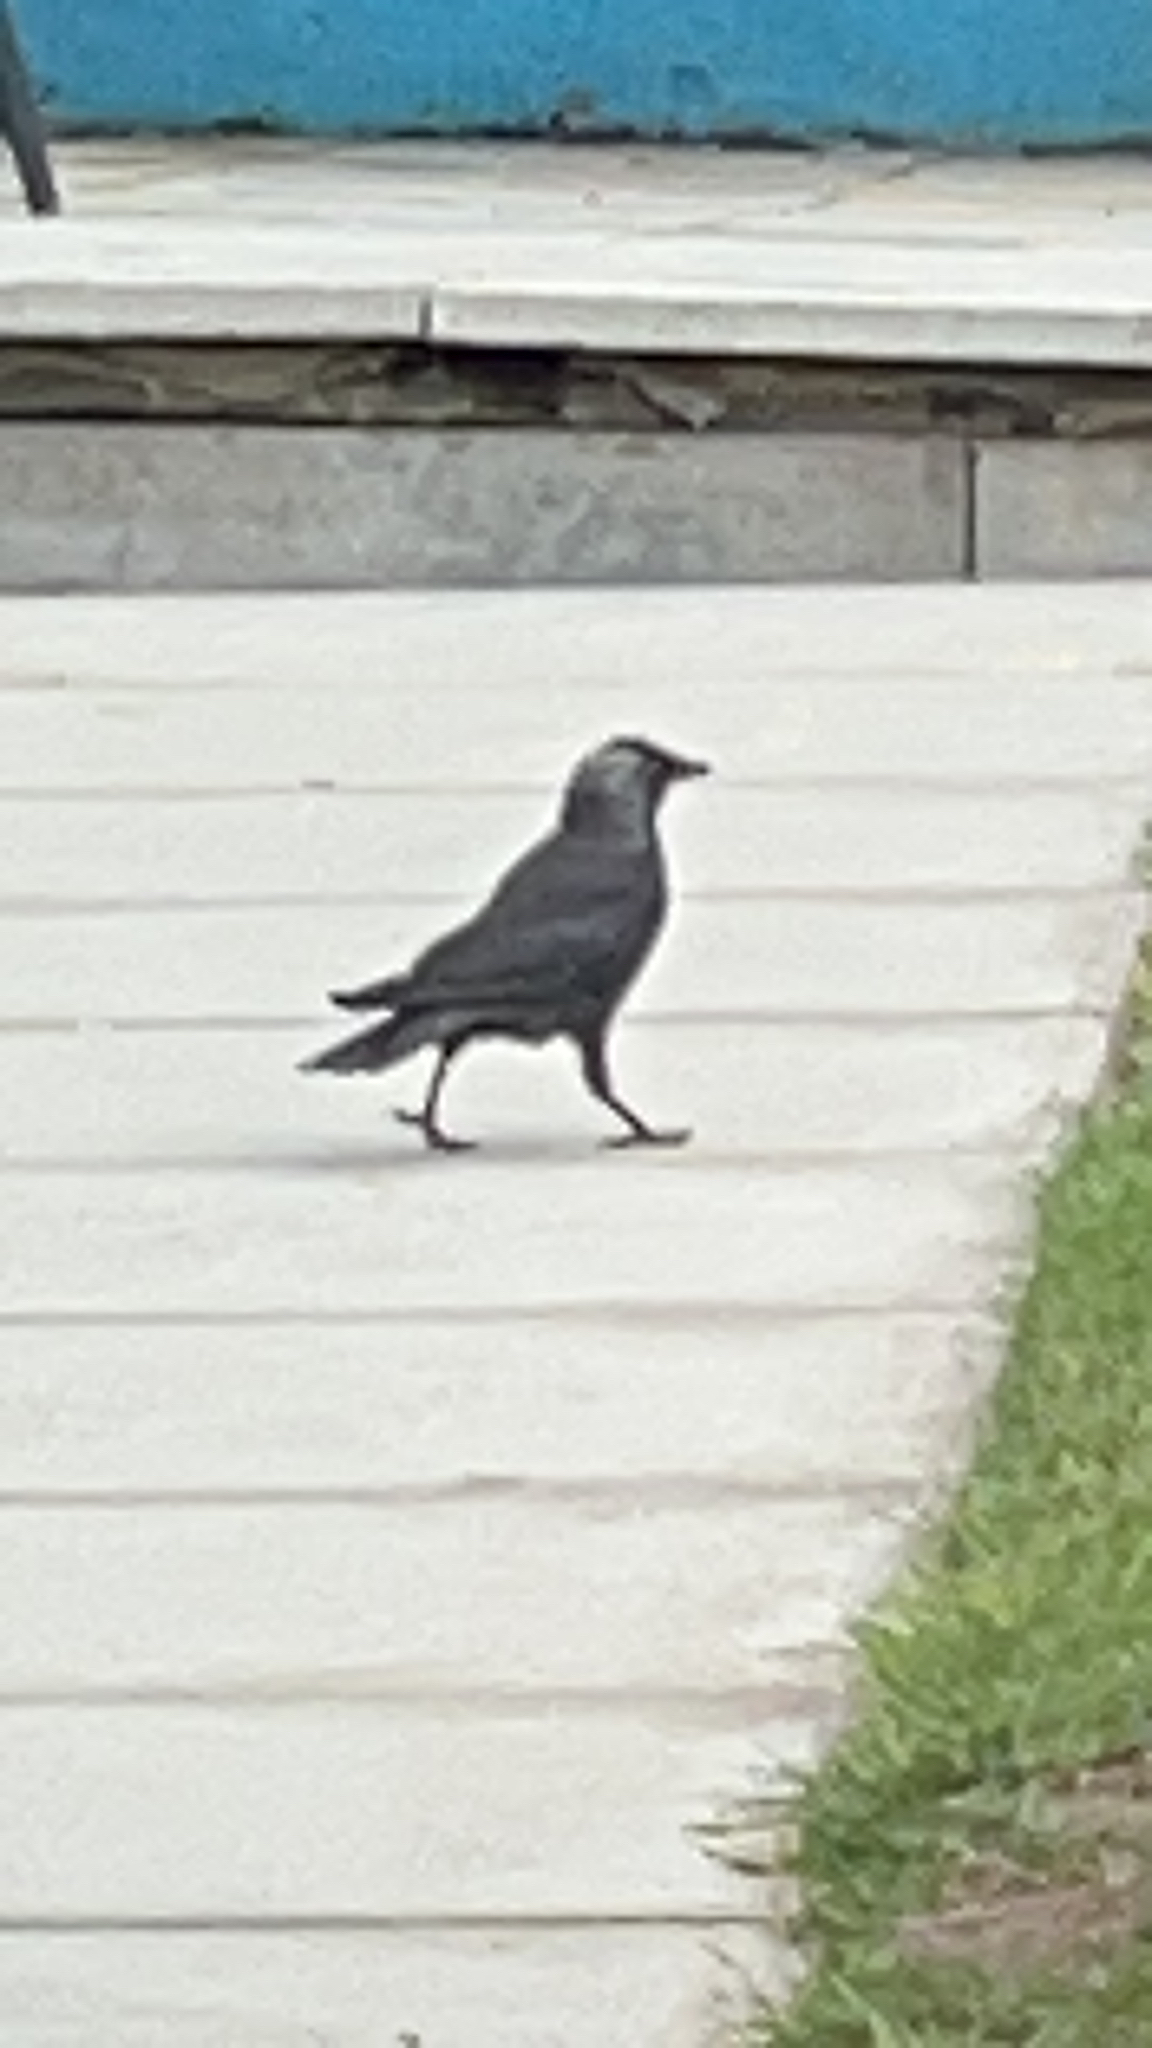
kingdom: Animalia
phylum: Chordata
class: Aves
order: Passeriformes
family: Corvidae
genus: Coloeus
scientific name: Coloeus monedula
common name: Western jackdaw
